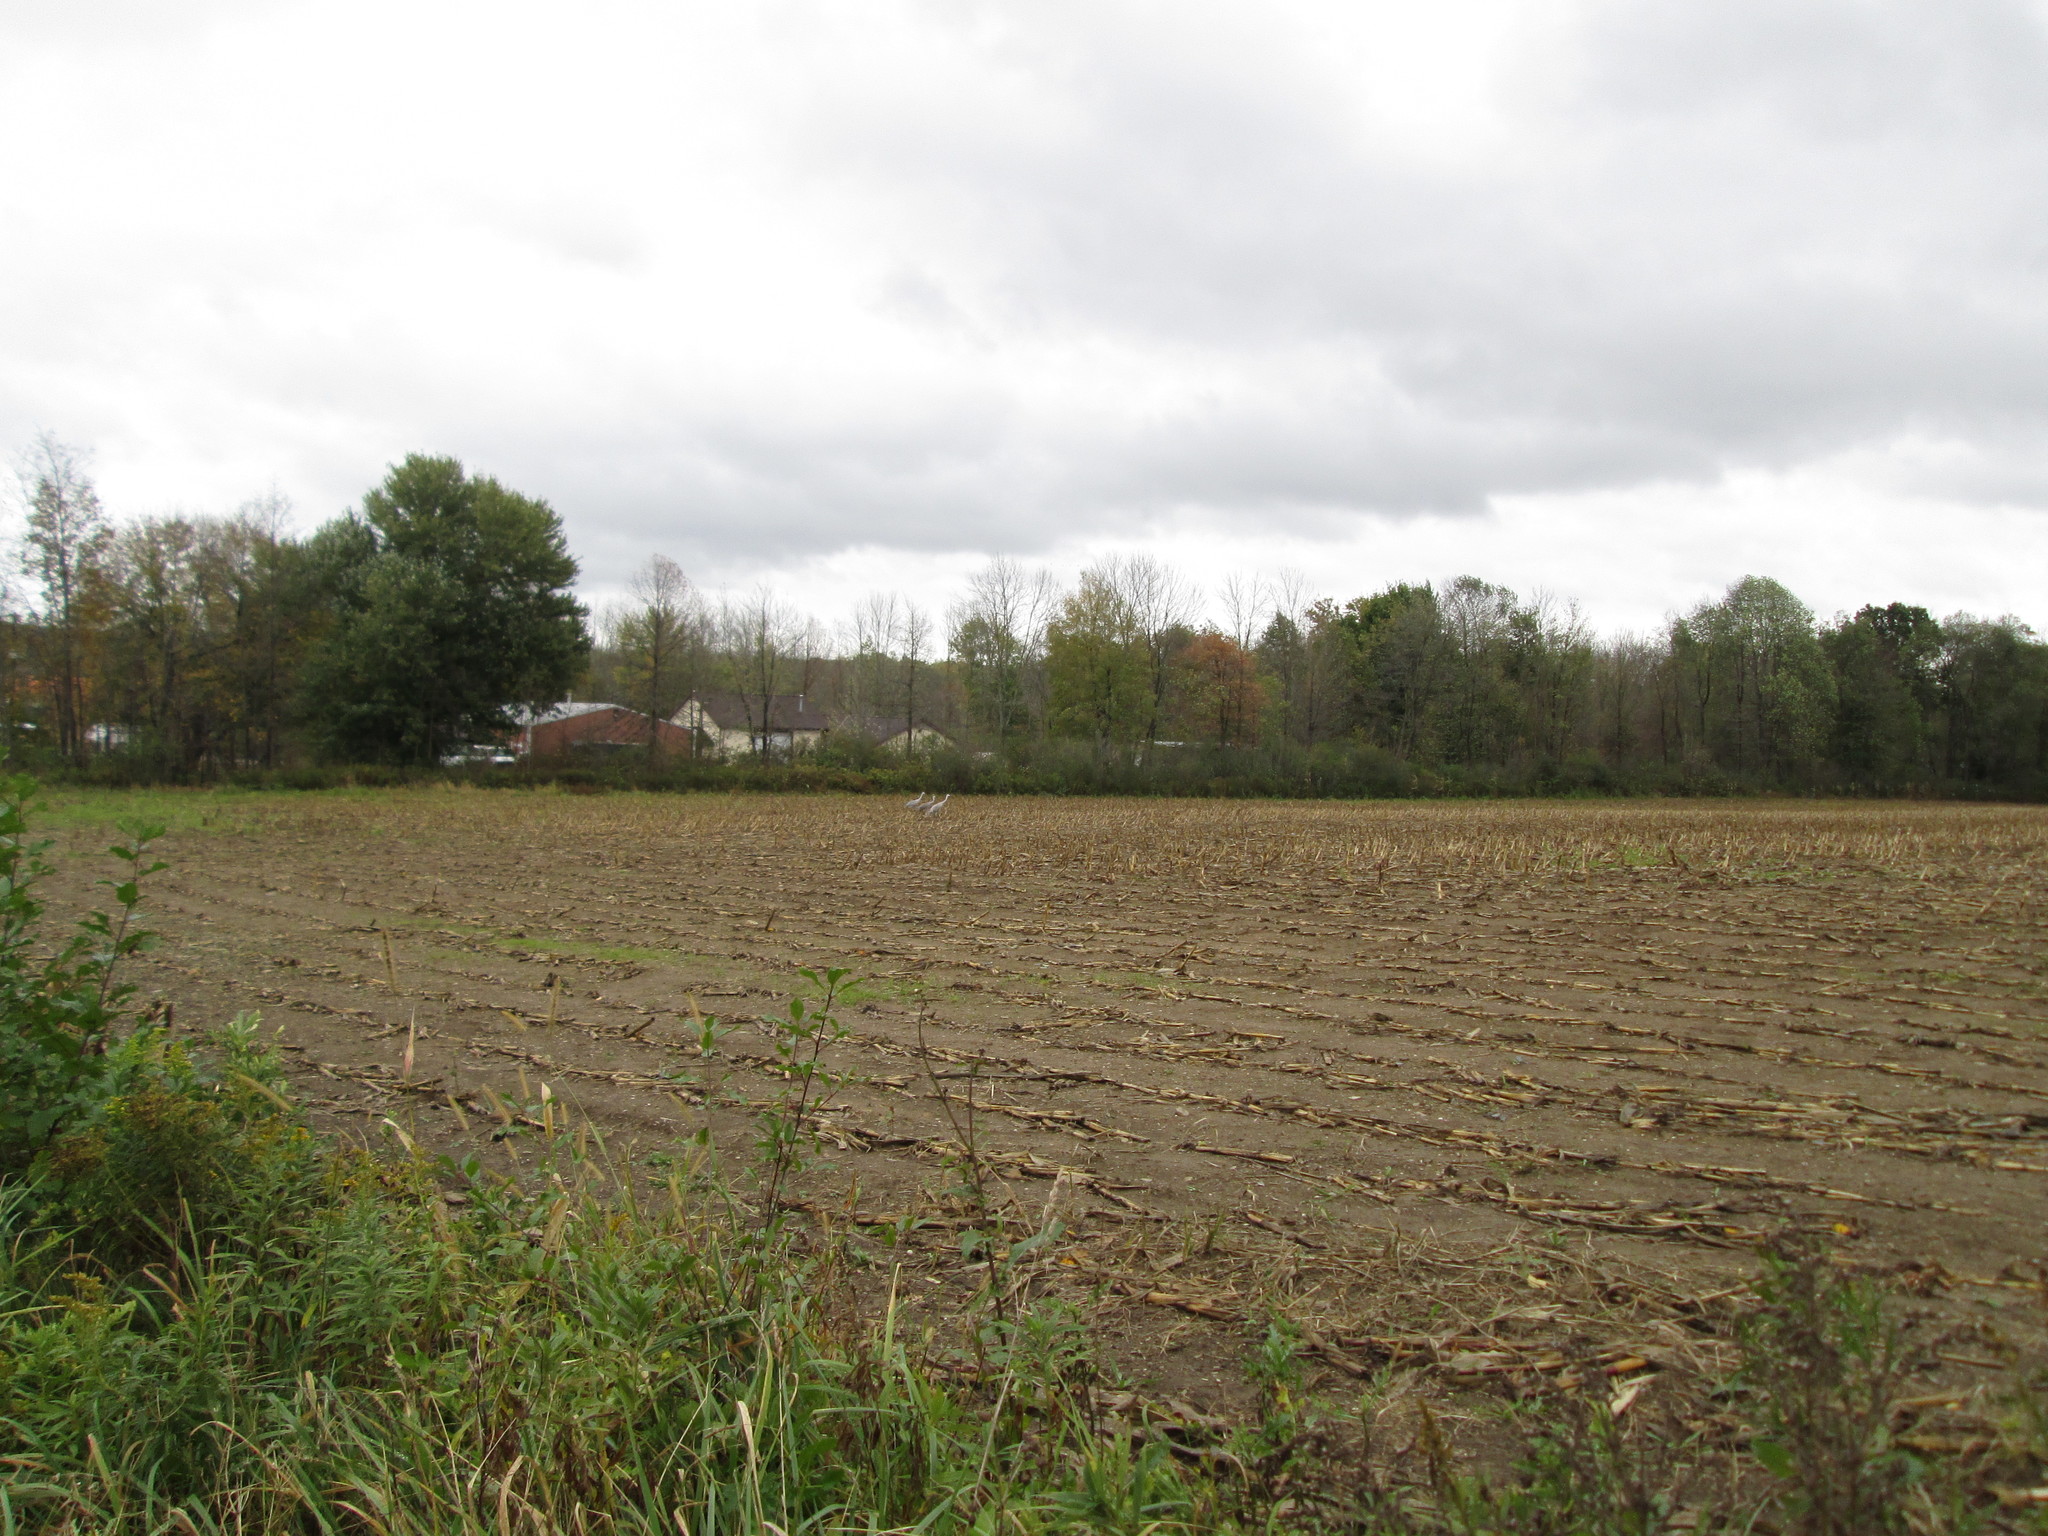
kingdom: Animalia
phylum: Chordata
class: Aves
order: Gruiformes
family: Gruidae
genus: Grus
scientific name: Grus canadensis
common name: Sandhill crane
